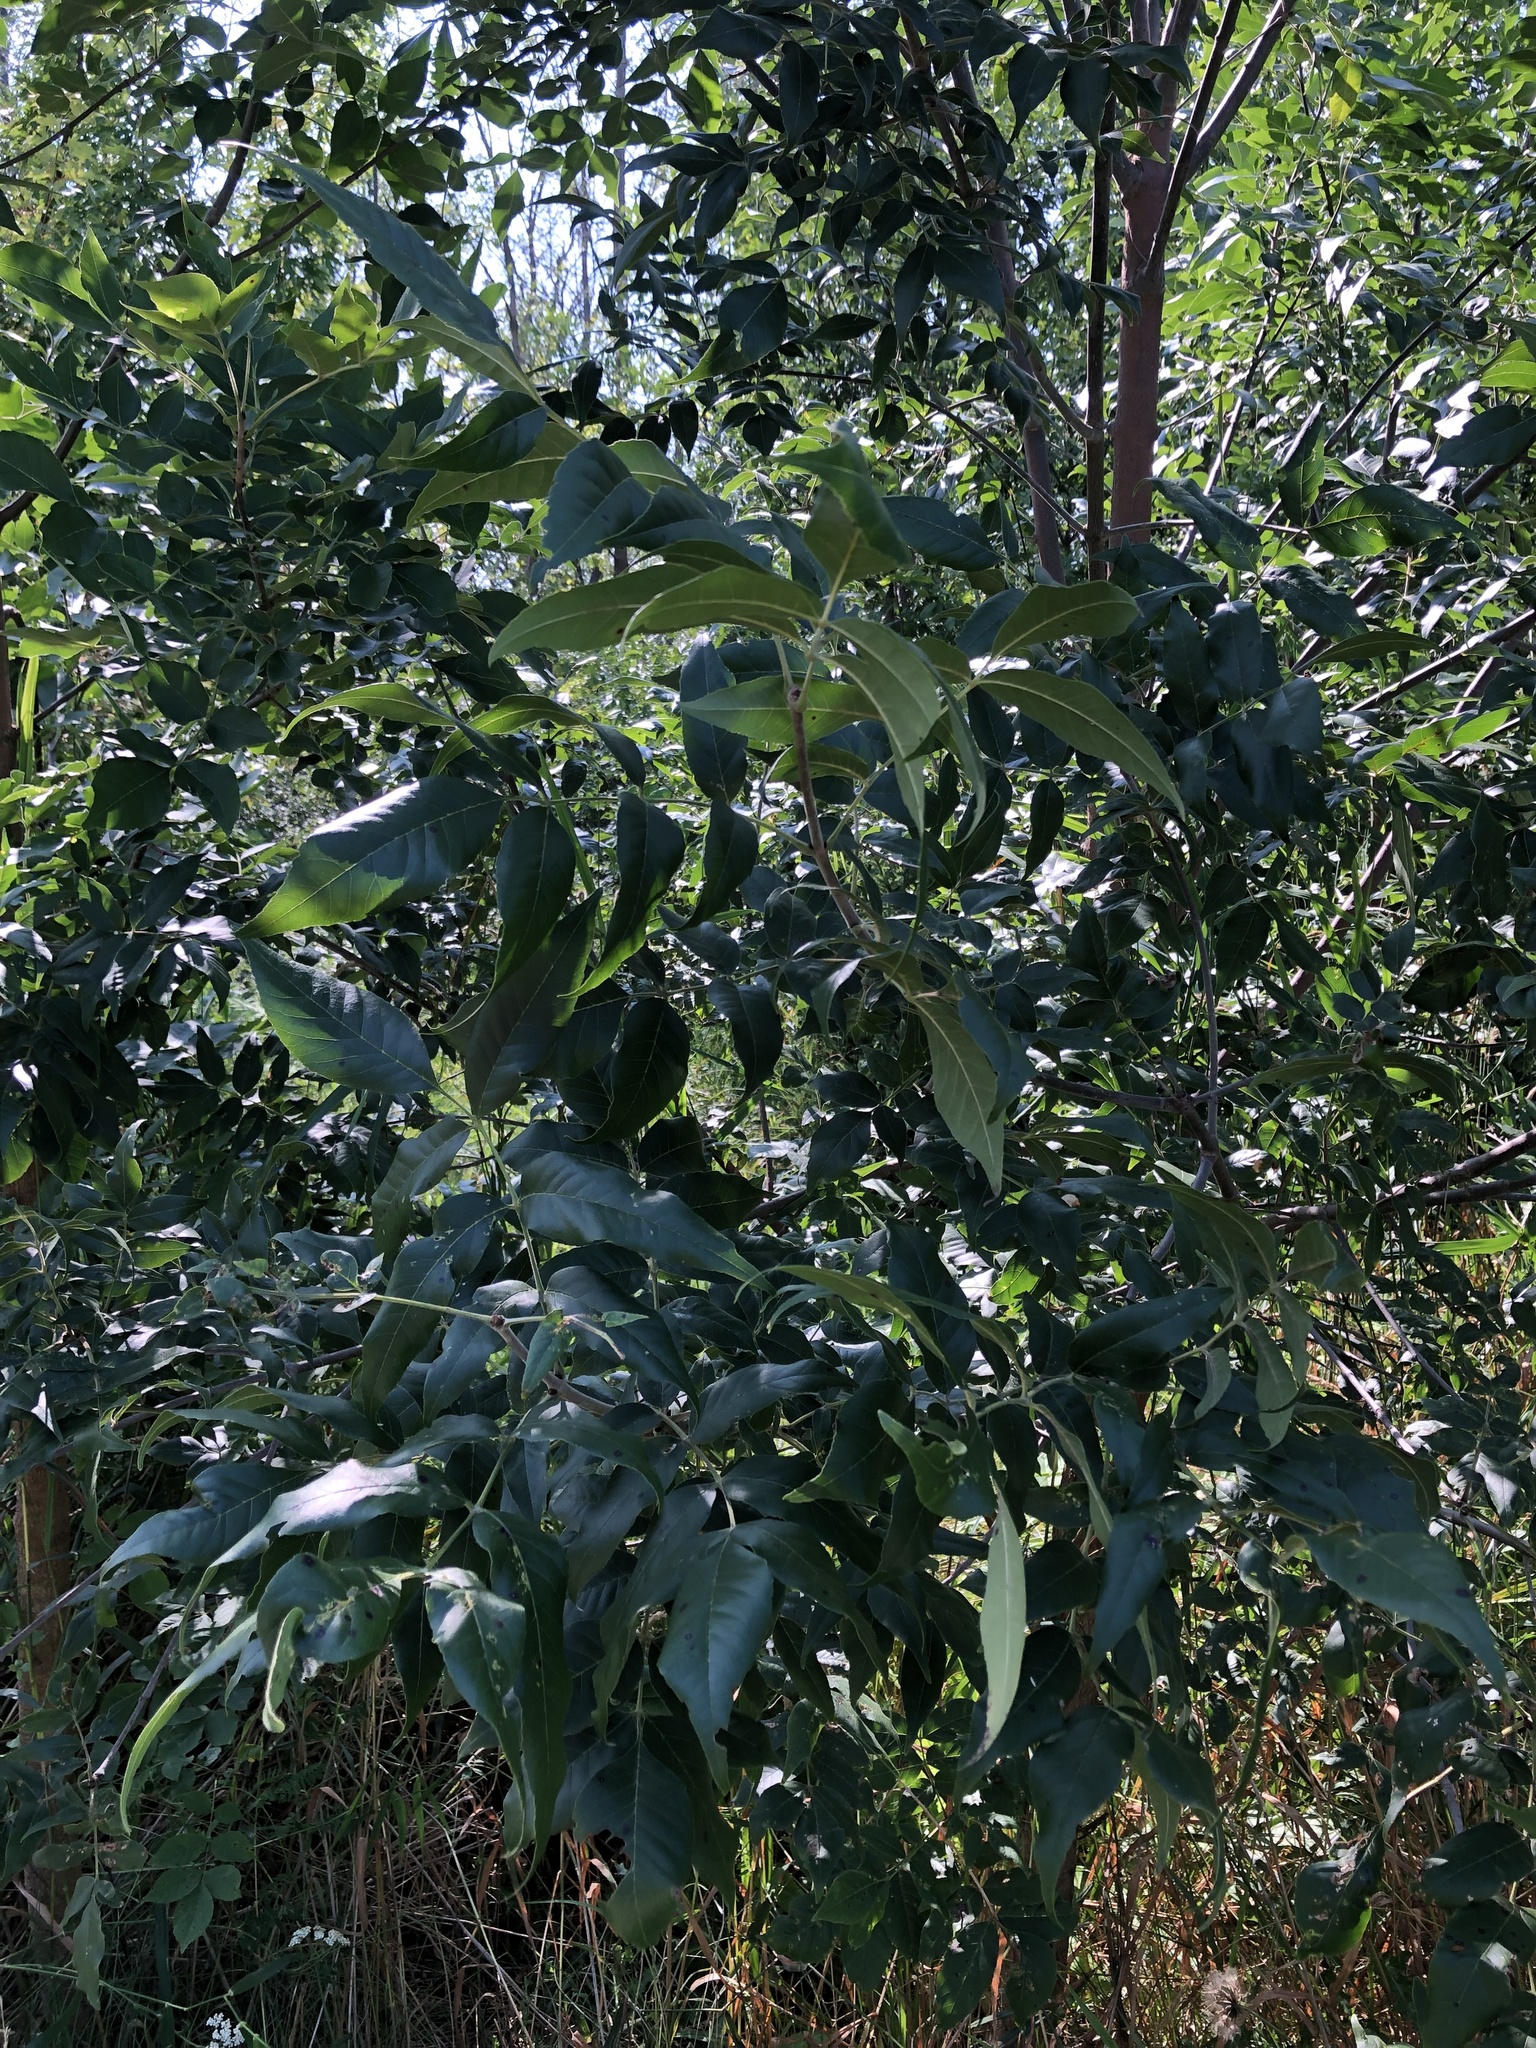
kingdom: Plantae
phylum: Tracheophyta
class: Magnoliopsida
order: Lamiales
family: Oleaceae
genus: Fraxinus
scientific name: Fraxinus pennsylvanica
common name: Green ash
